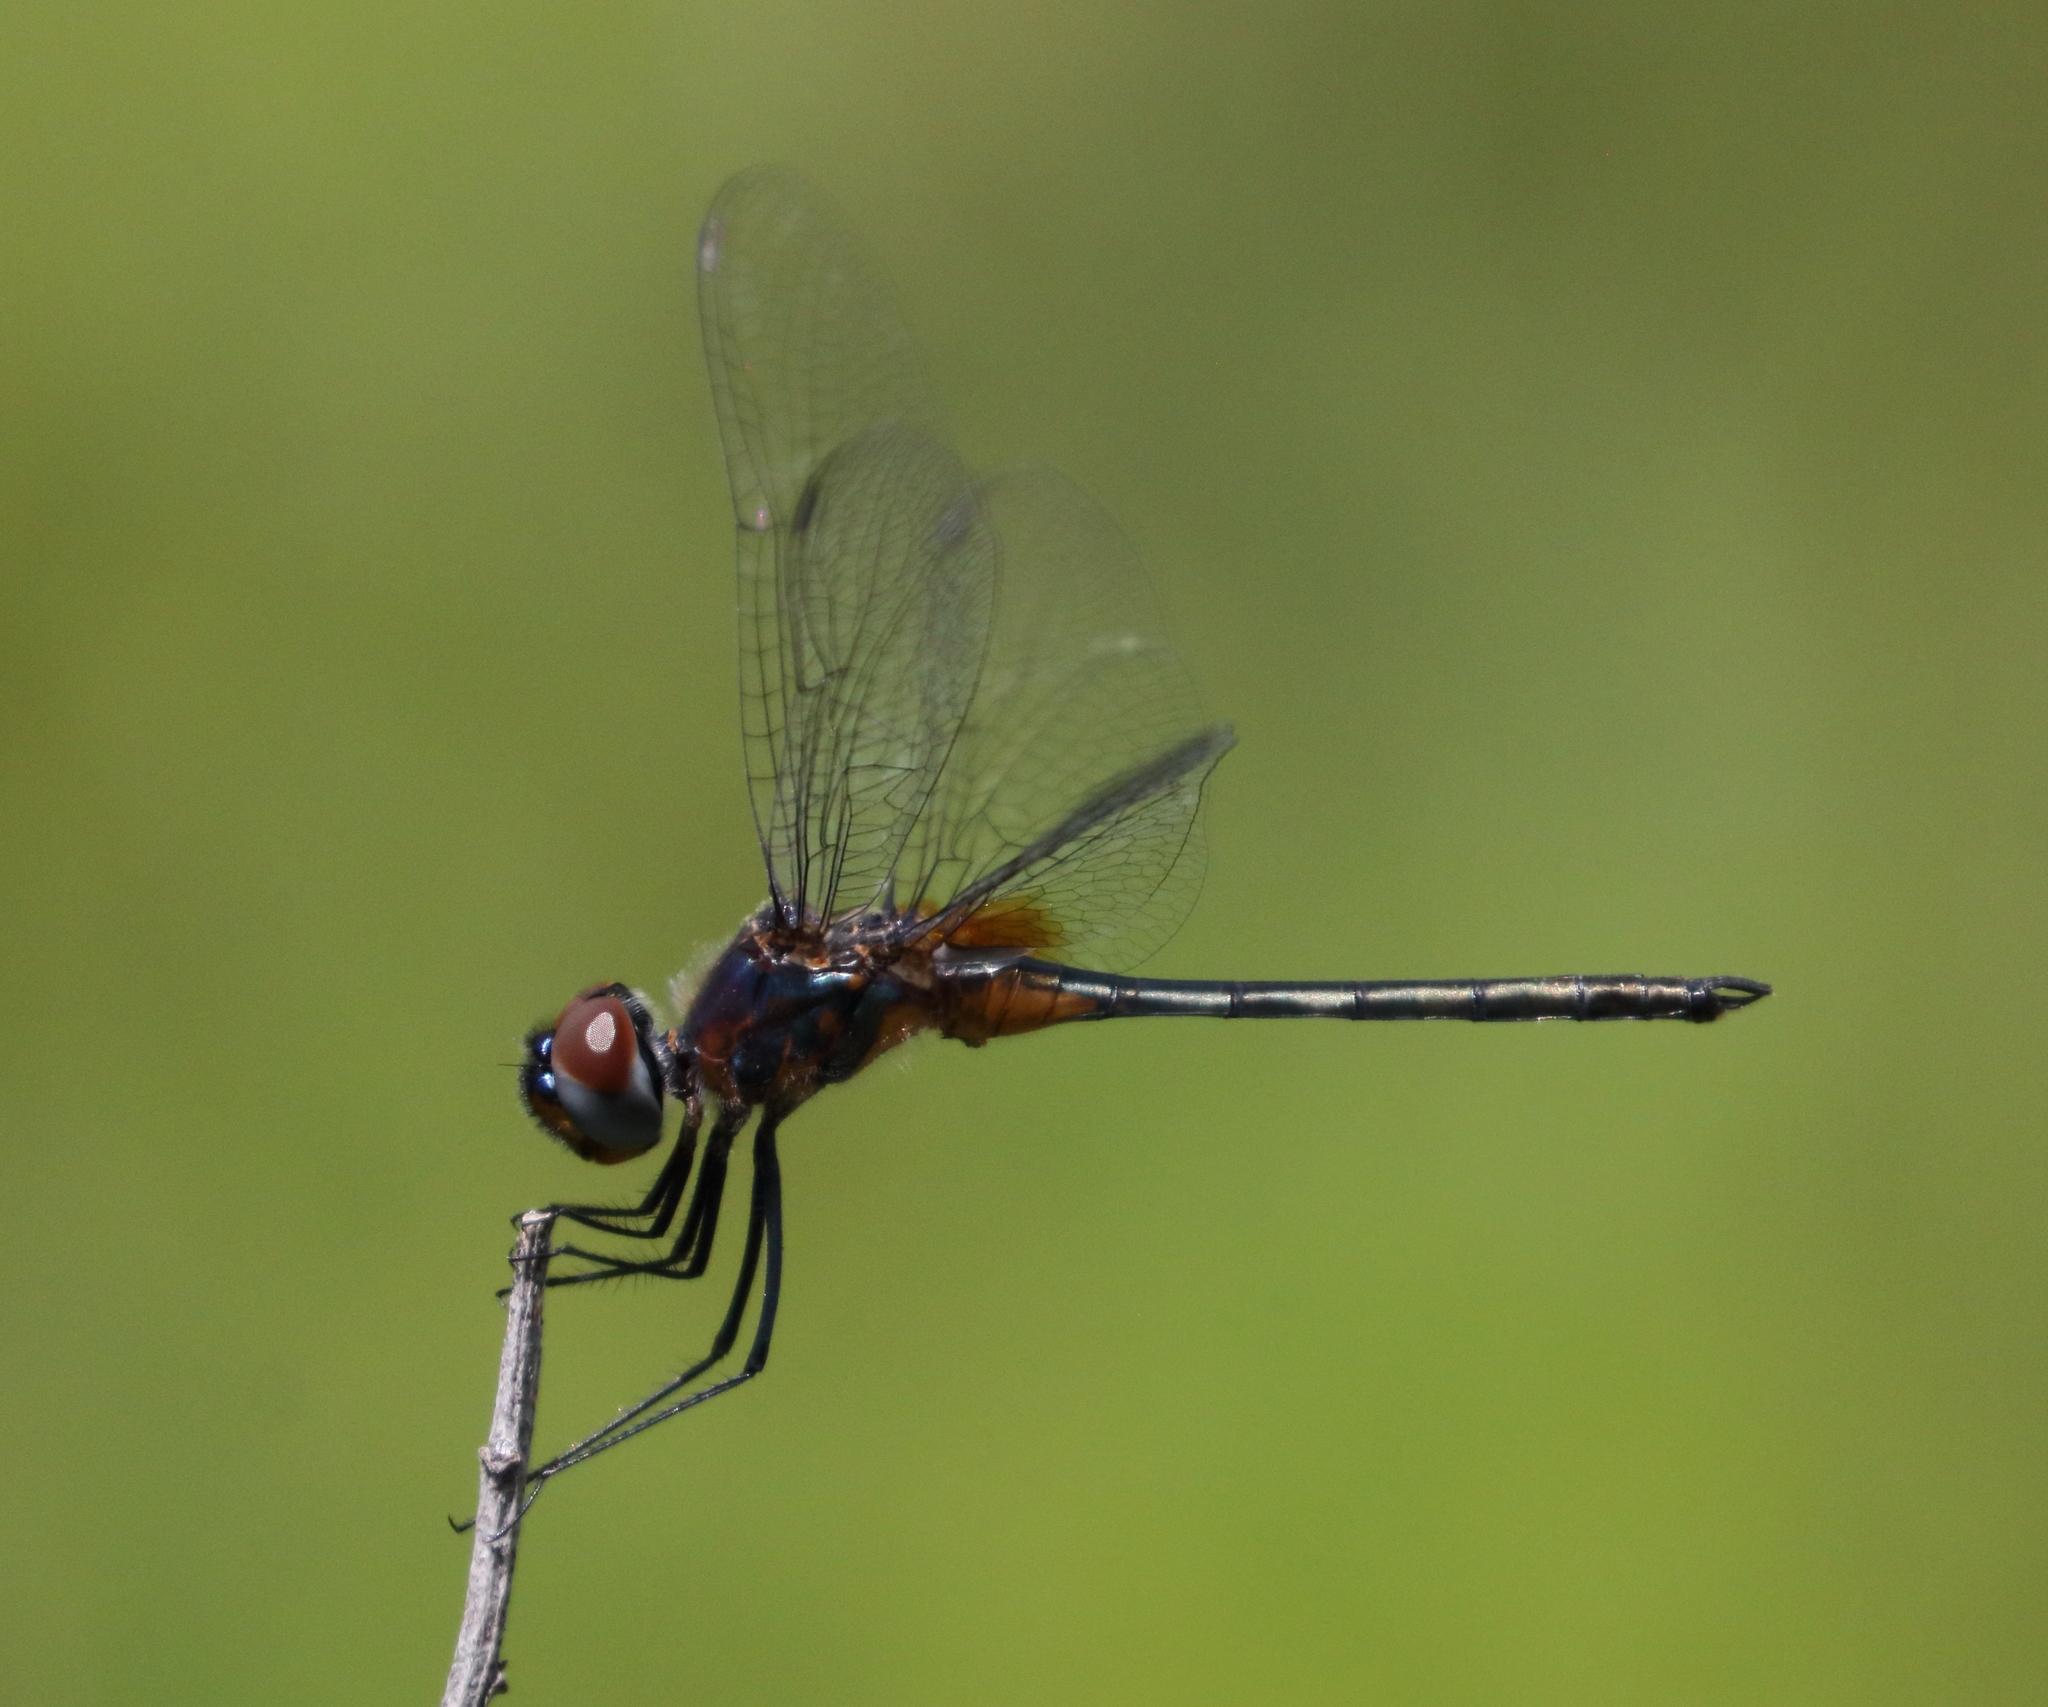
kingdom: Animalia
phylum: Arthropoda
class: Insecta
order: Odonata
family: Libellulidae
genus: Idiataphe
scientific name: Idiataphe cubensis
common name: Metallic pennant
